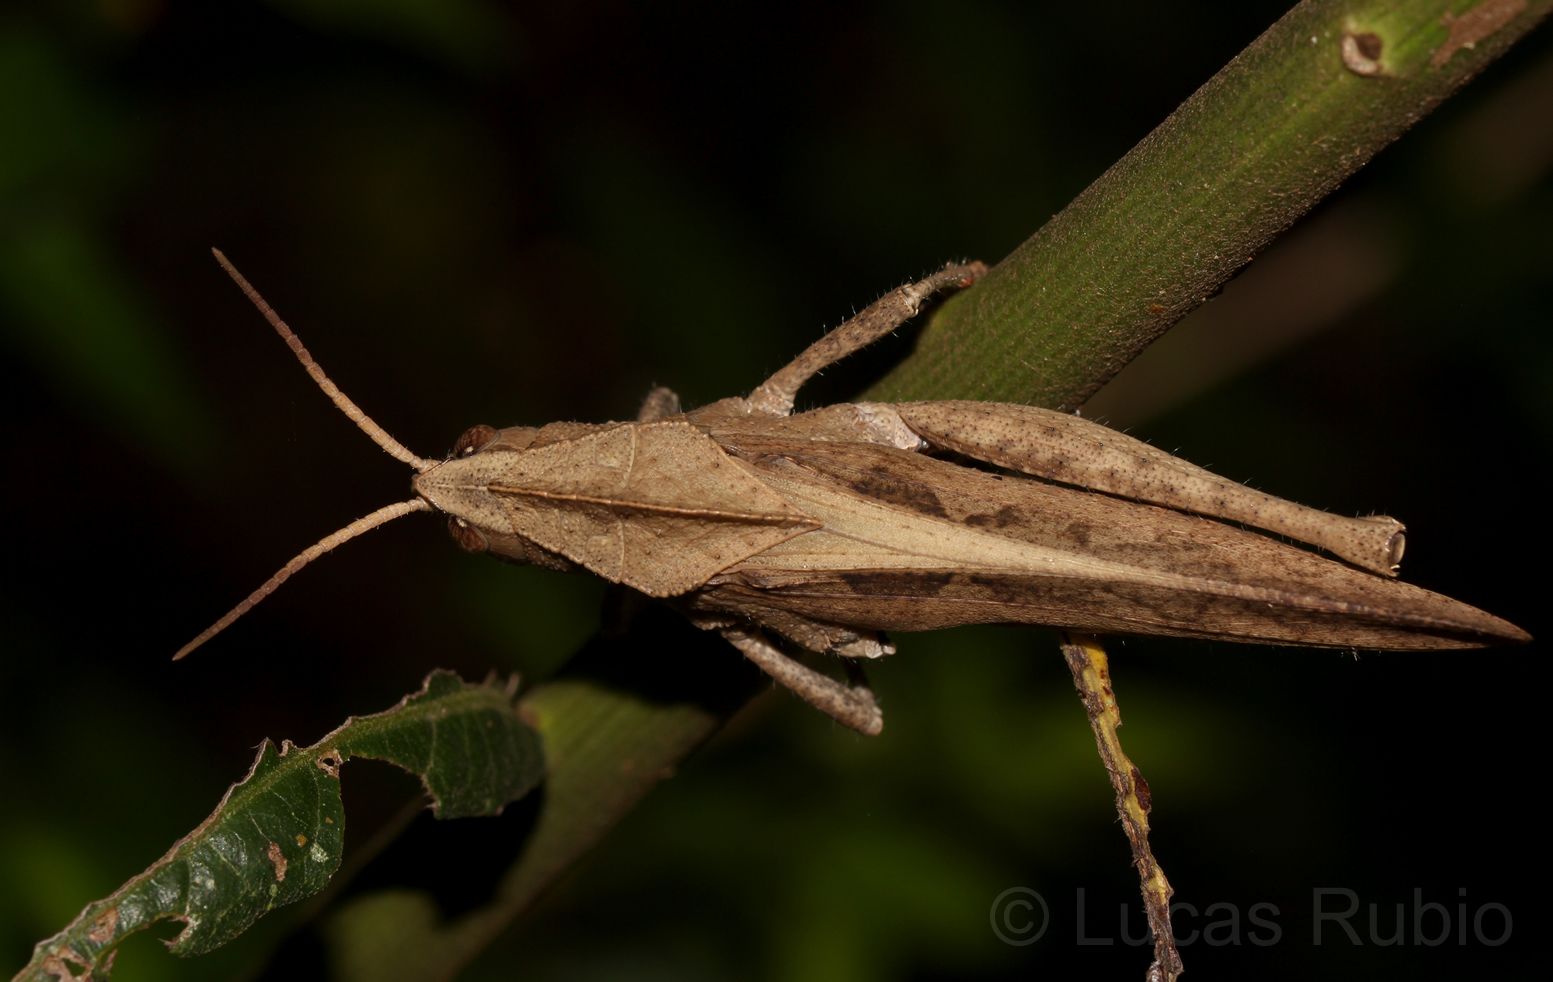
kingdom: Animalia
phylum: Arthropoda
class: Insecta
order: Orthoptera
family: Romaleidae
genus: Xyleus
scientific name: Xyleus discoideus
